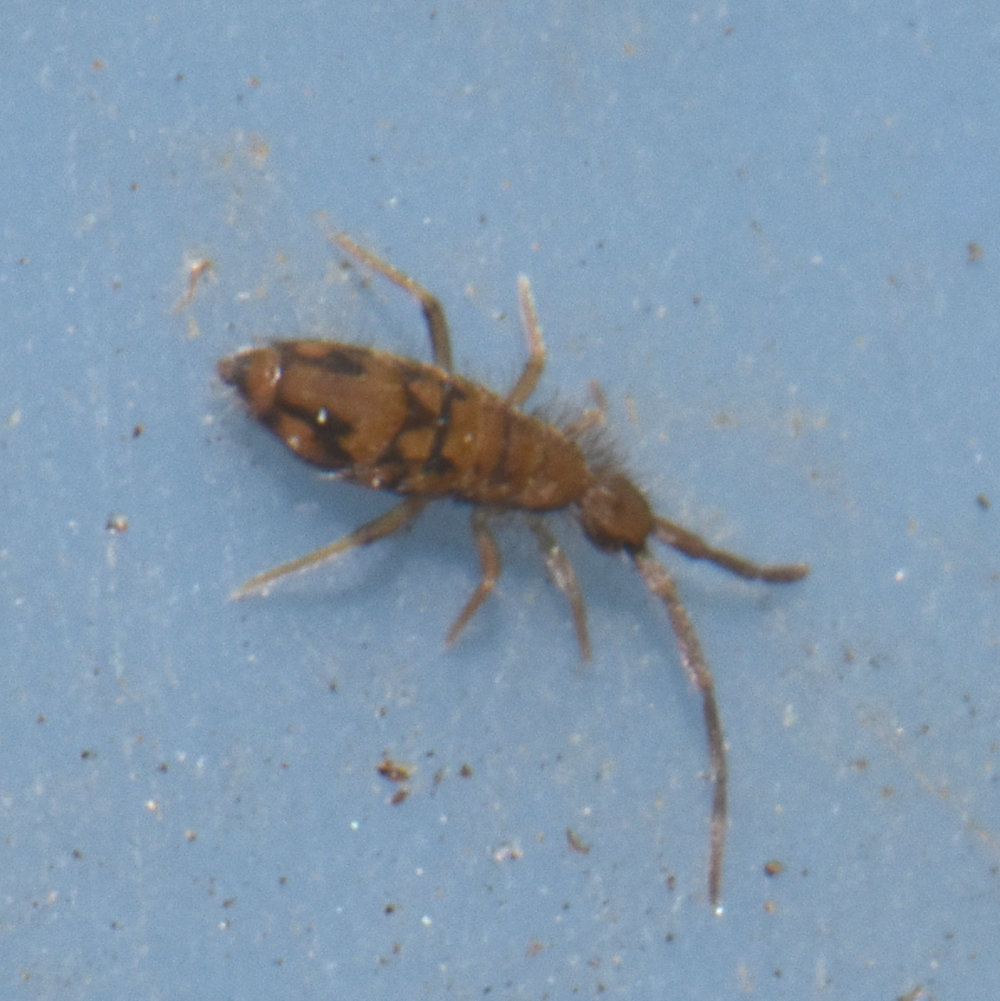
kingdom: Animalia
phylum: Arthropoda
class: Collembola
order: Entomobryomorpha
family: Entomobryidae
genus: Entomobrya
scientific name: Entomobrya nivalis
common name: Cosmopolitan springtail
